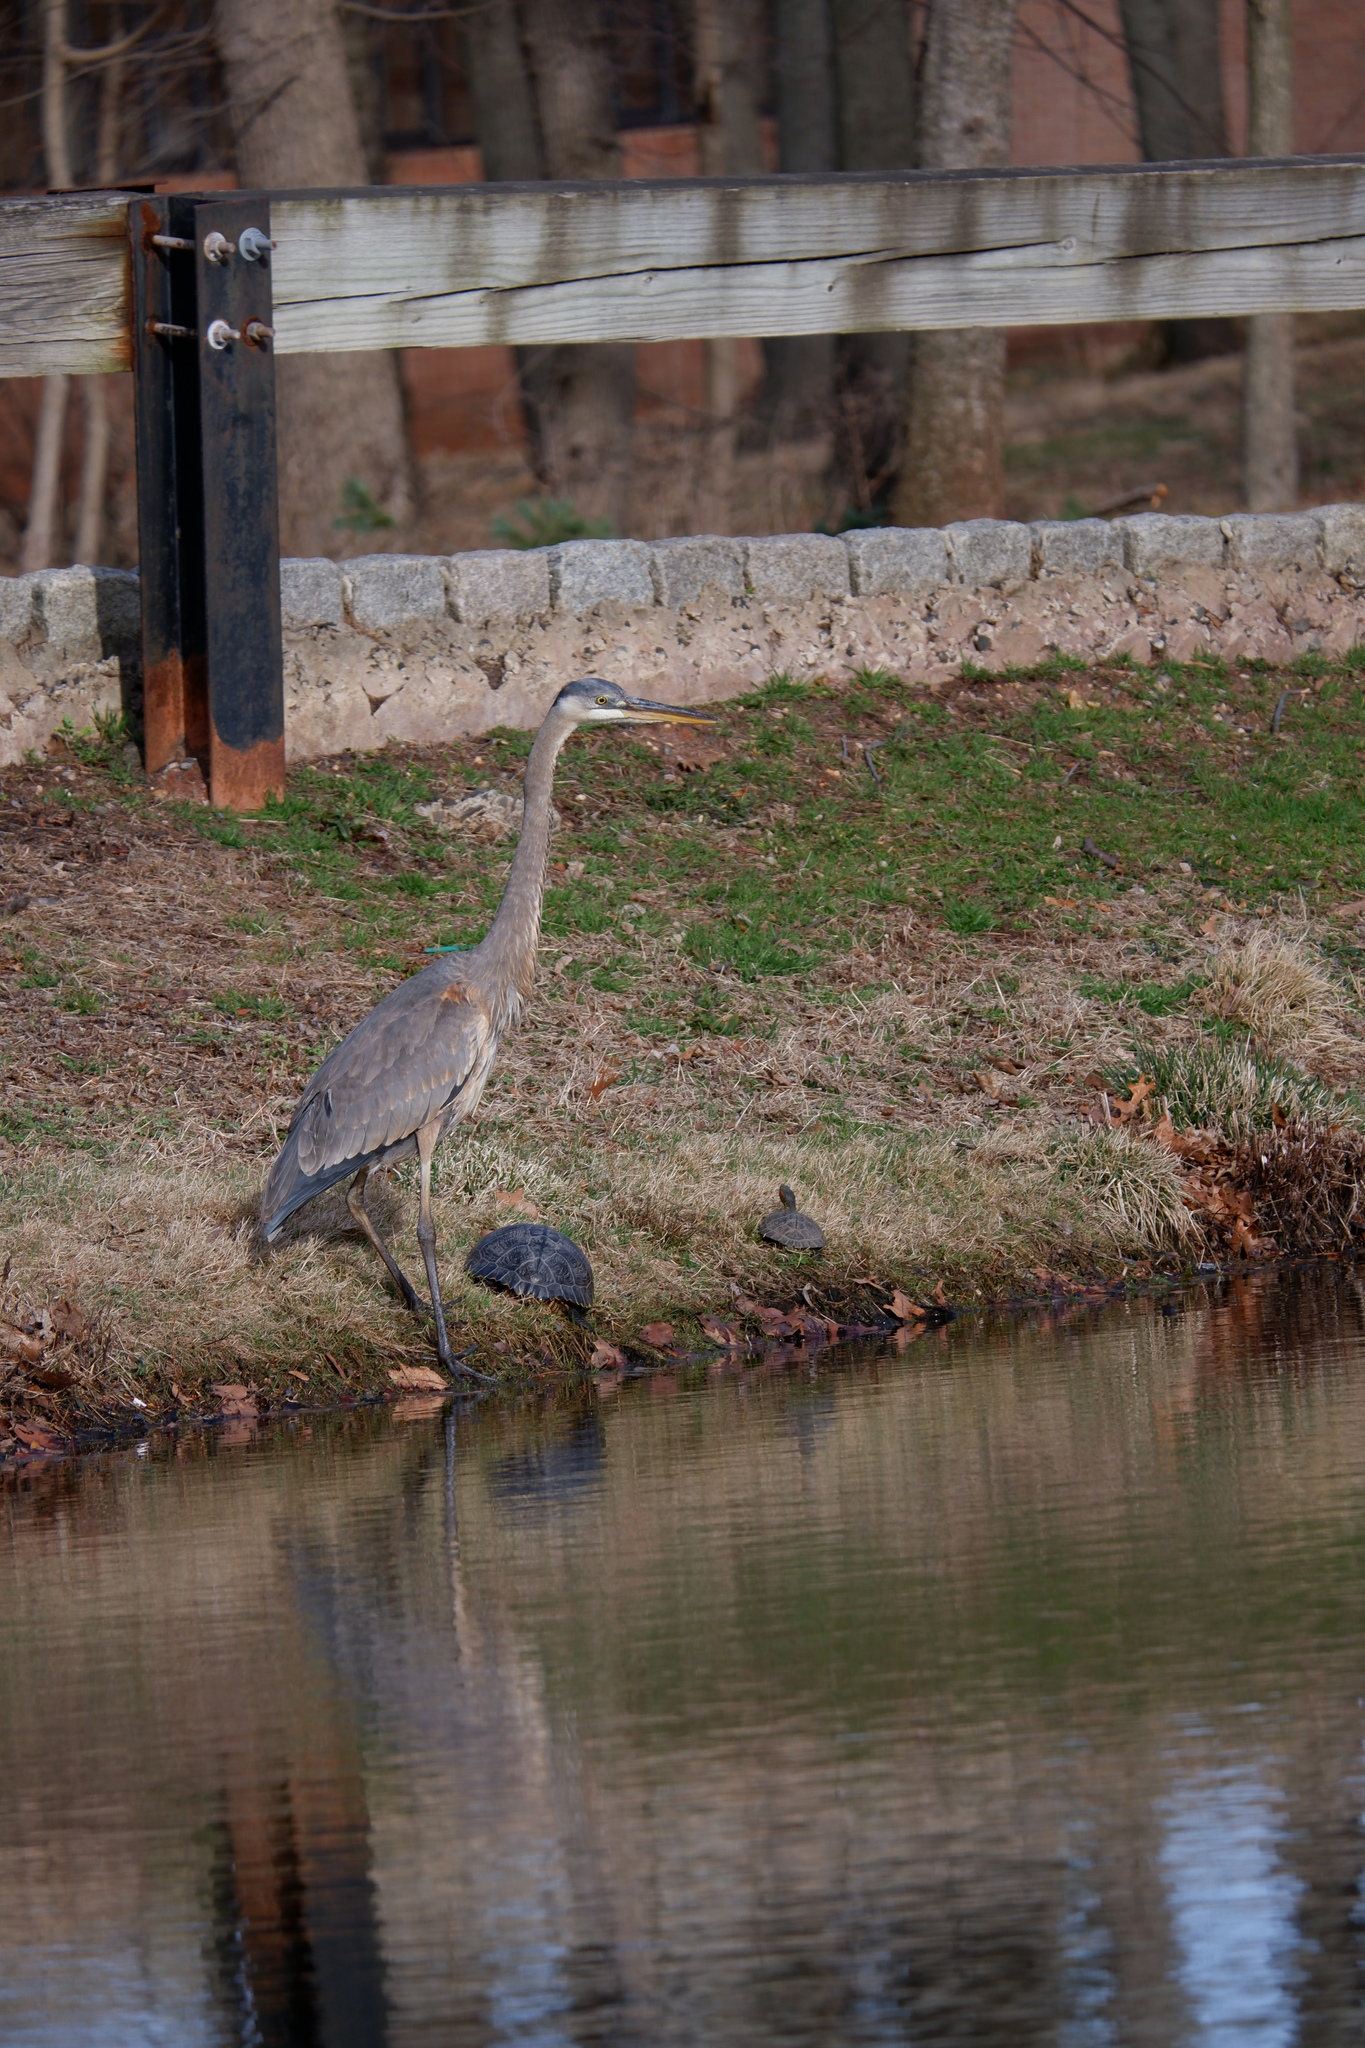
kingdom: Animalia
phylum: Chordata
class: Testudines
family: Emydidae
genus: Trachemys
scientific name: Trachemys scripta
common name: Slider
